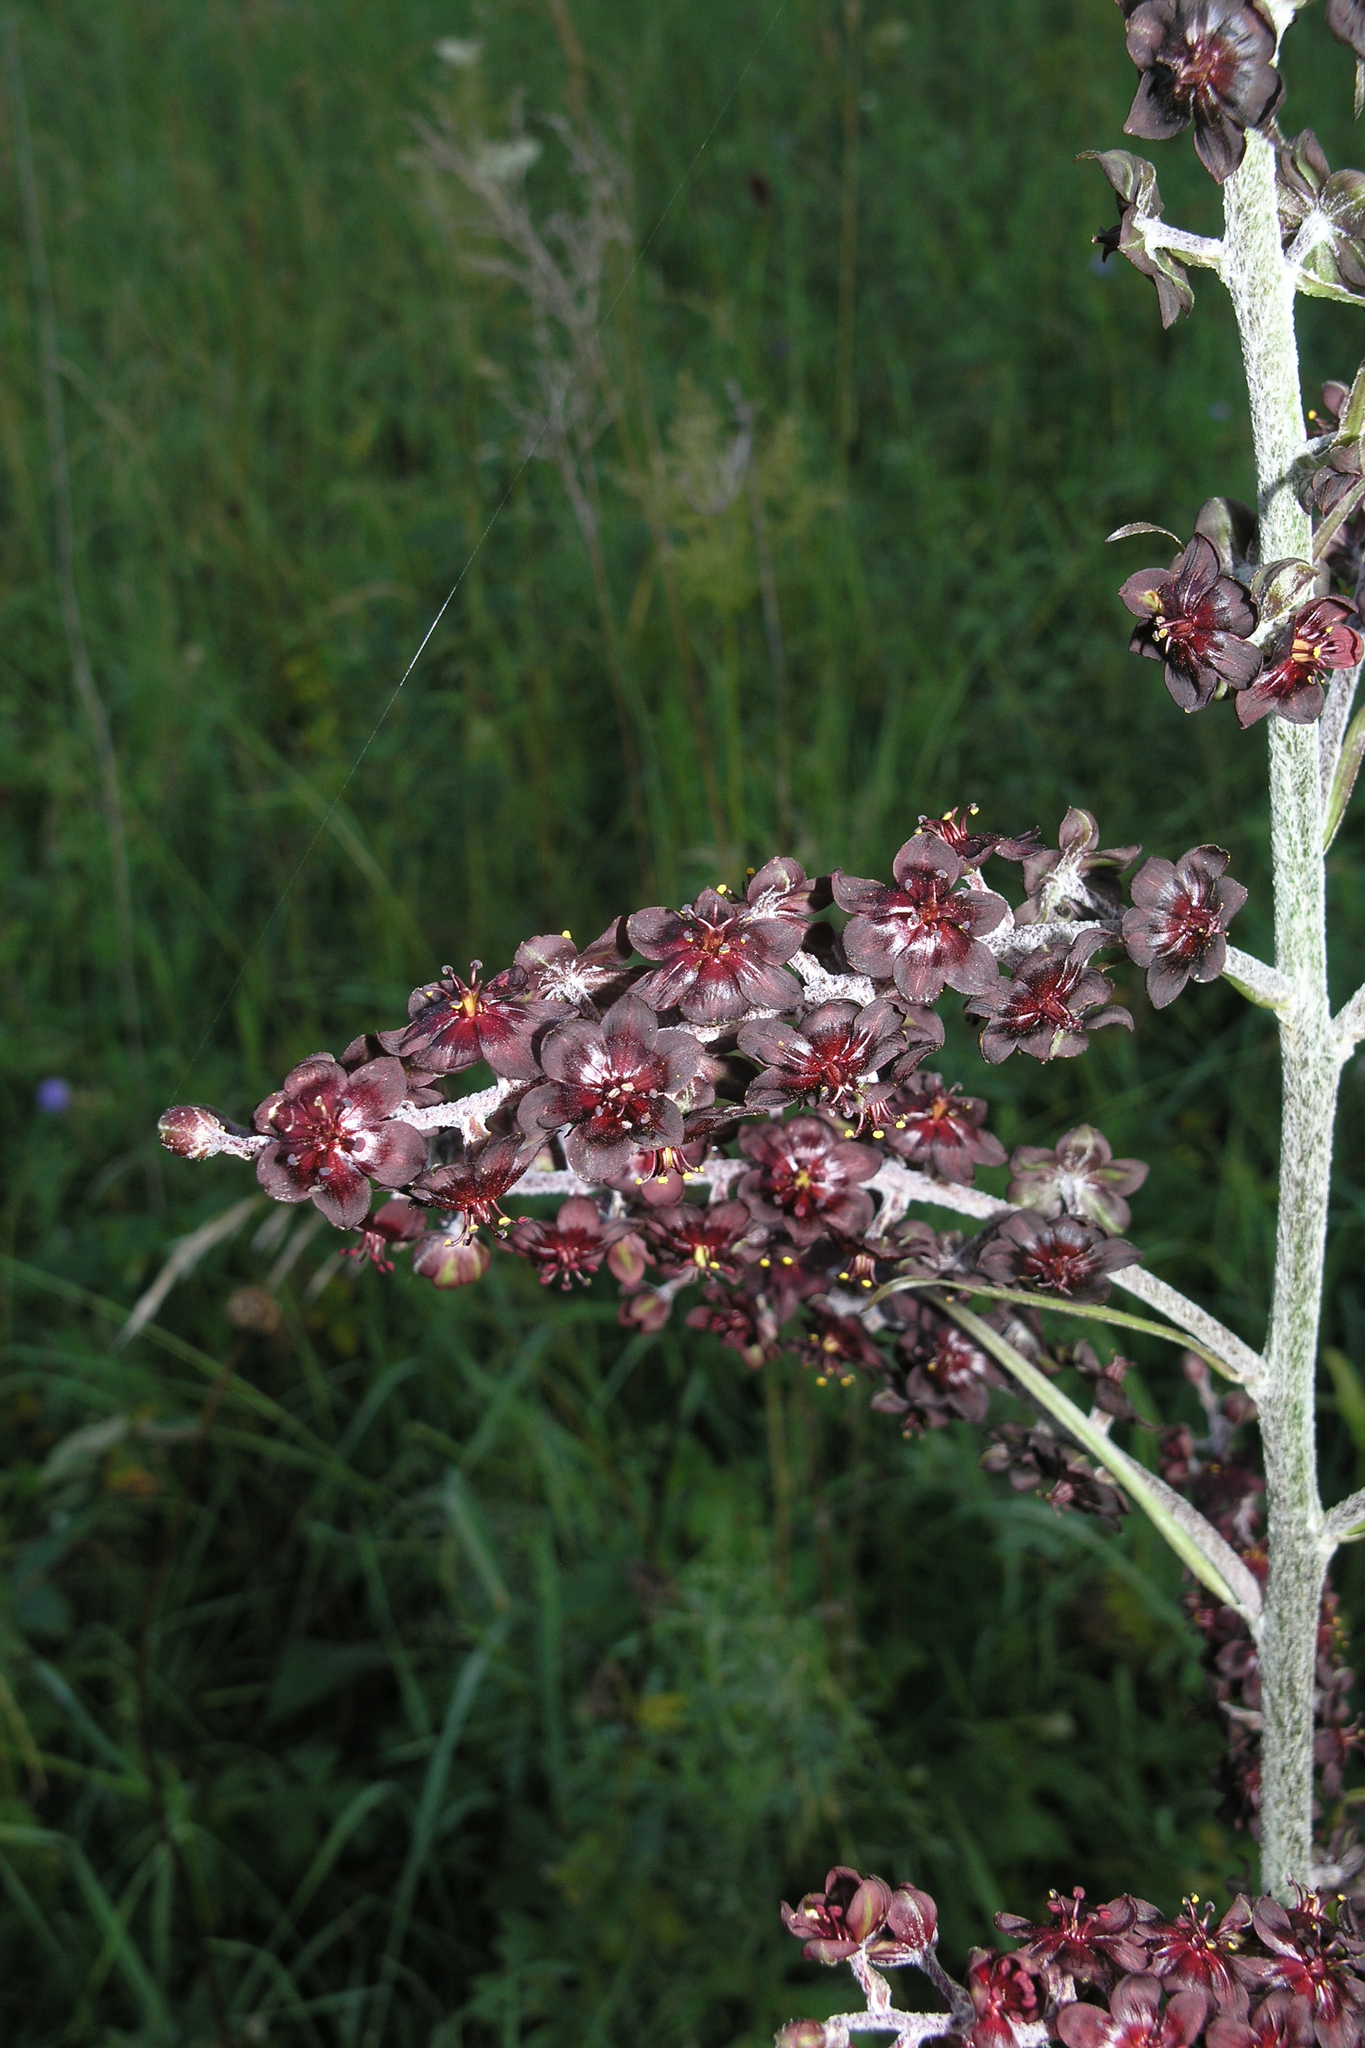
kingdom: Plantae
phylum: Tracheophyta
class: Liliopsida
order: Liliales
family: Melanthiaceae
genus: Veratrum
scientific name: Veratrum nigrum
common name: Black veratrum
